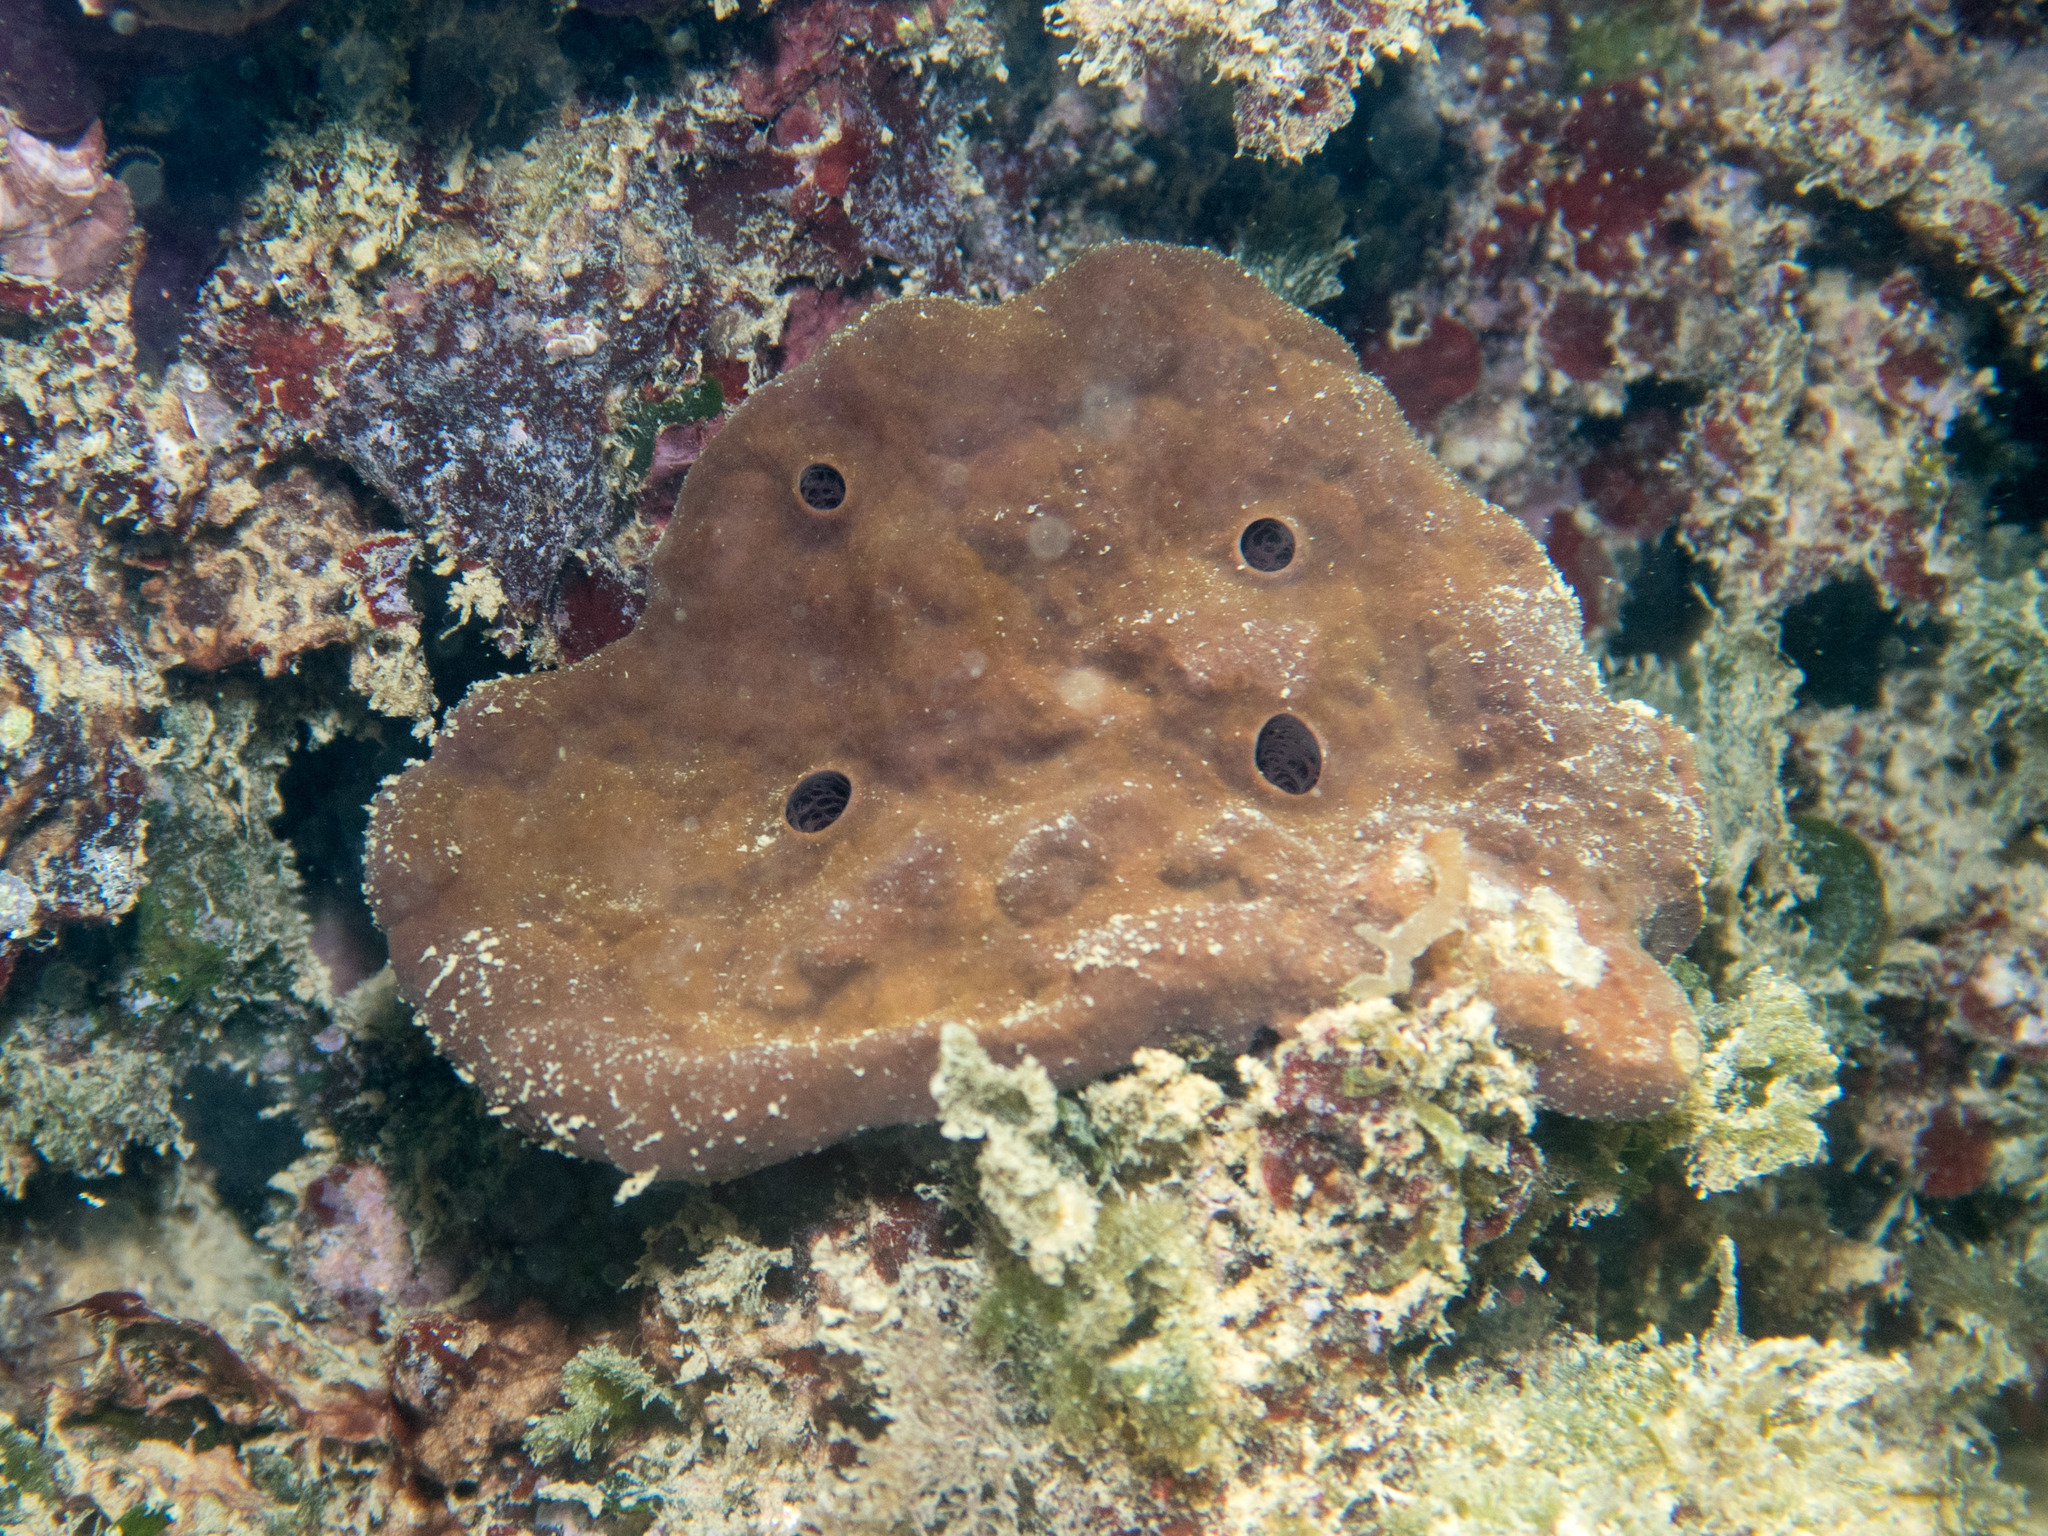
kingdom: Animalia
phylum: Porifera
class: Demospongiae
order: Haplosclerida
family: Petrosiidae
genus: Petrosia
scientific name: Petrosia ficiformis
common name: Stony sponge
